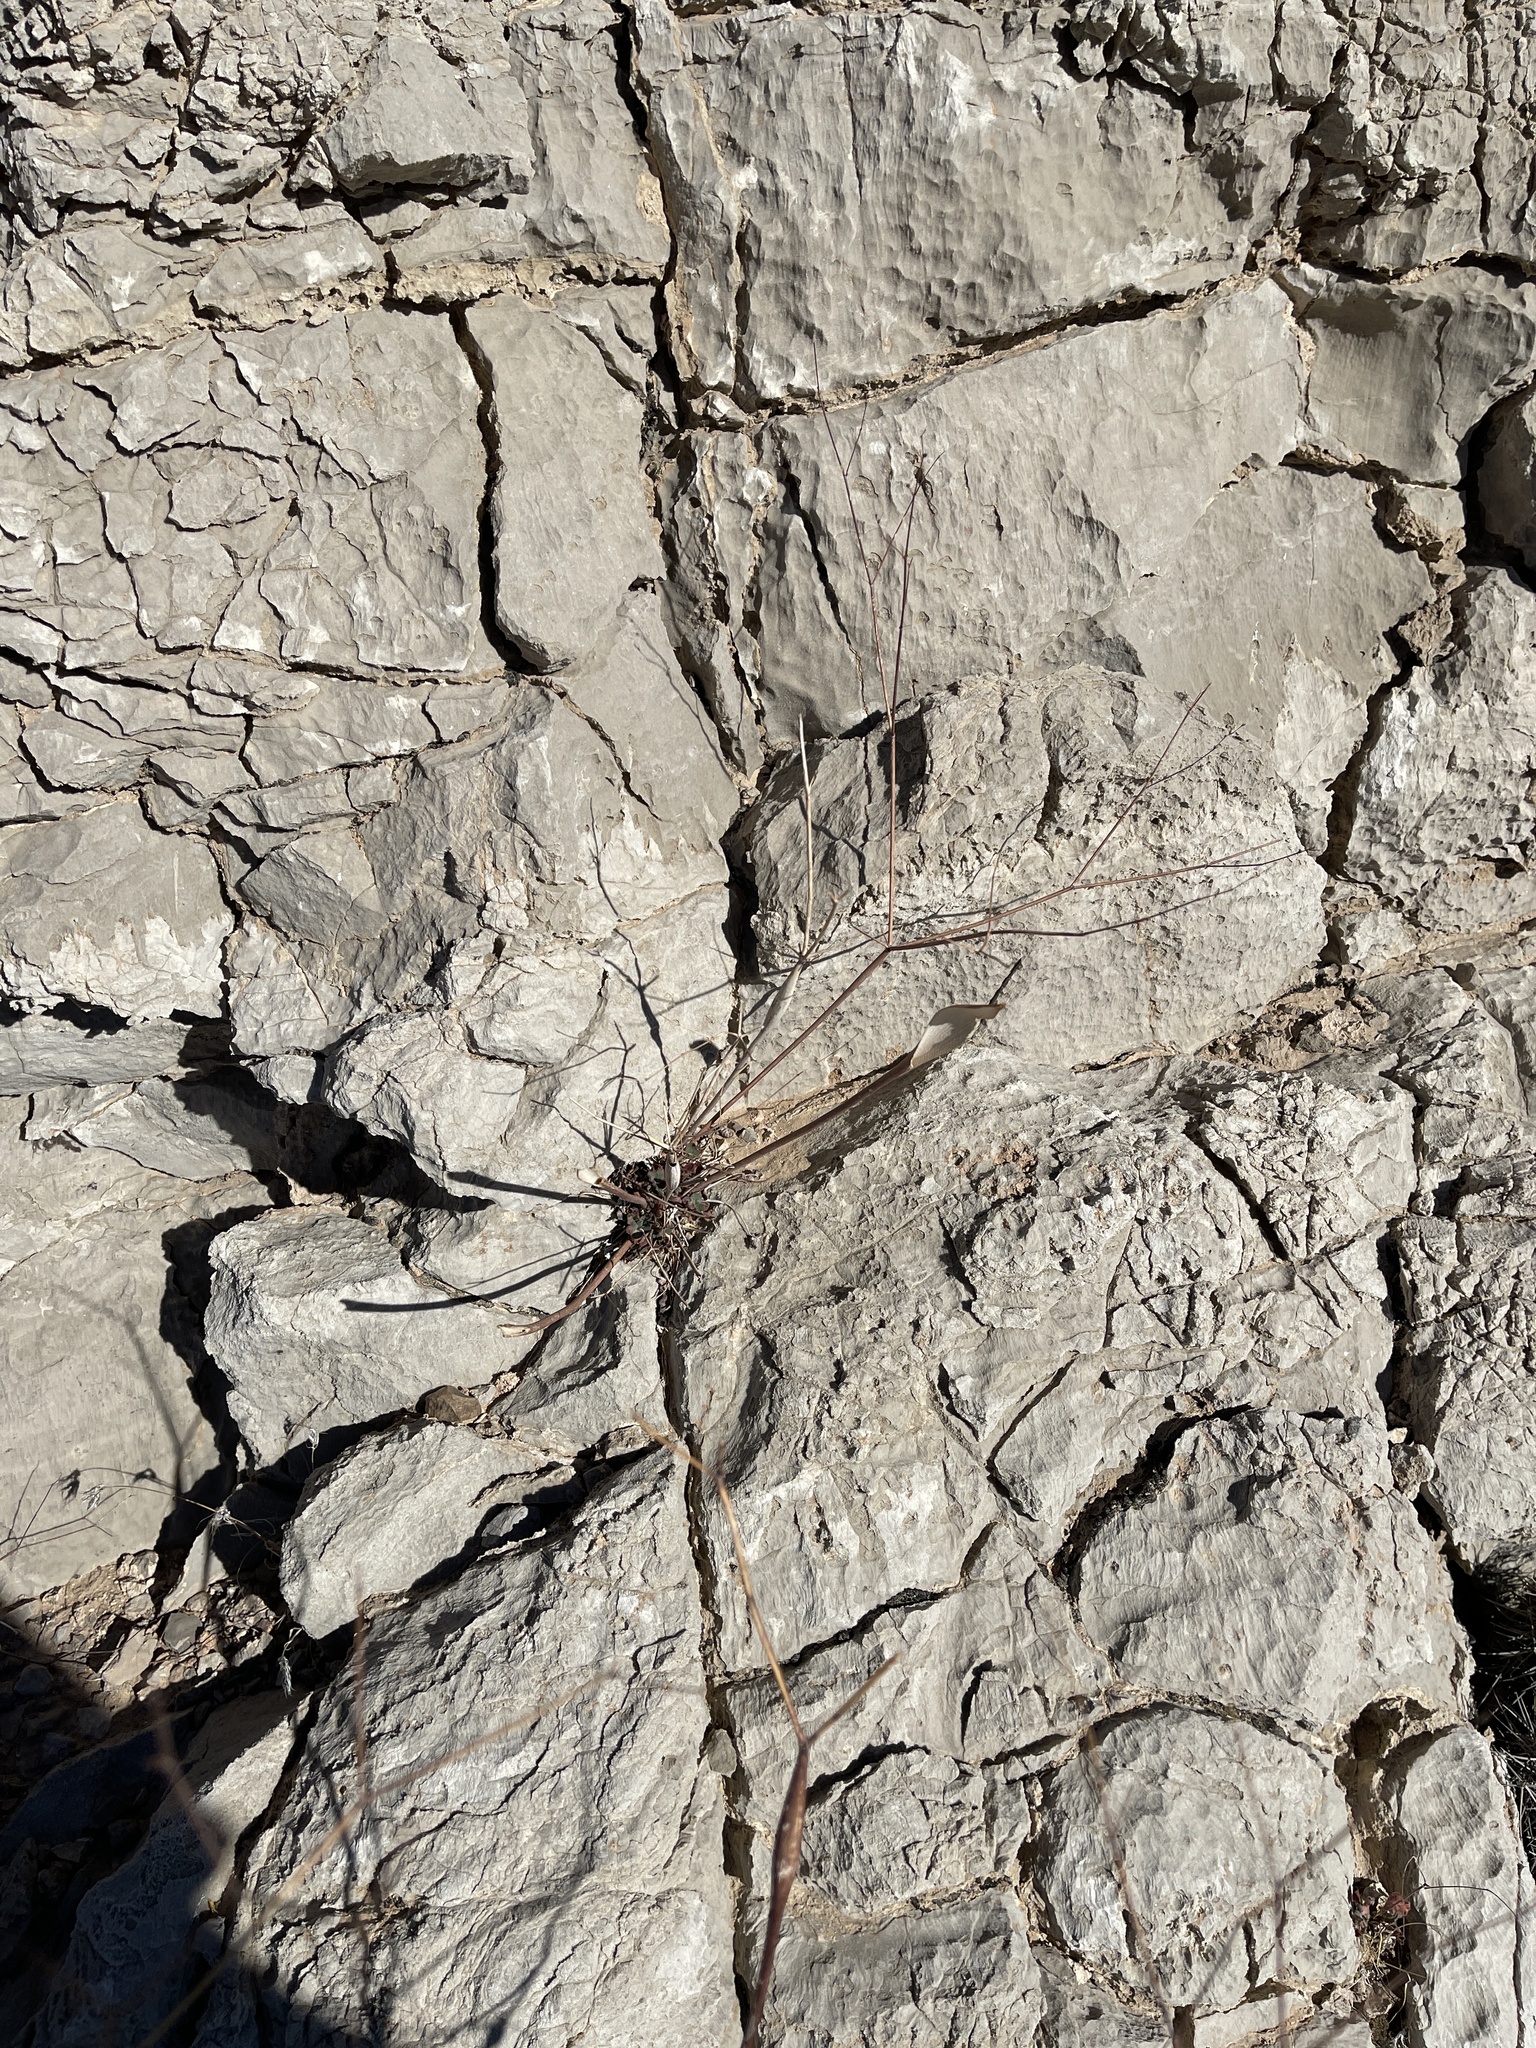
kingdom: Plantae
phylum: Tracheophyta
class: Magnoliopsida
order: Caryophyllales
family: Polygonaceae
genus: Eriogonum
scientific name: Eriogonum inflatum
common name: Desert trumpet
